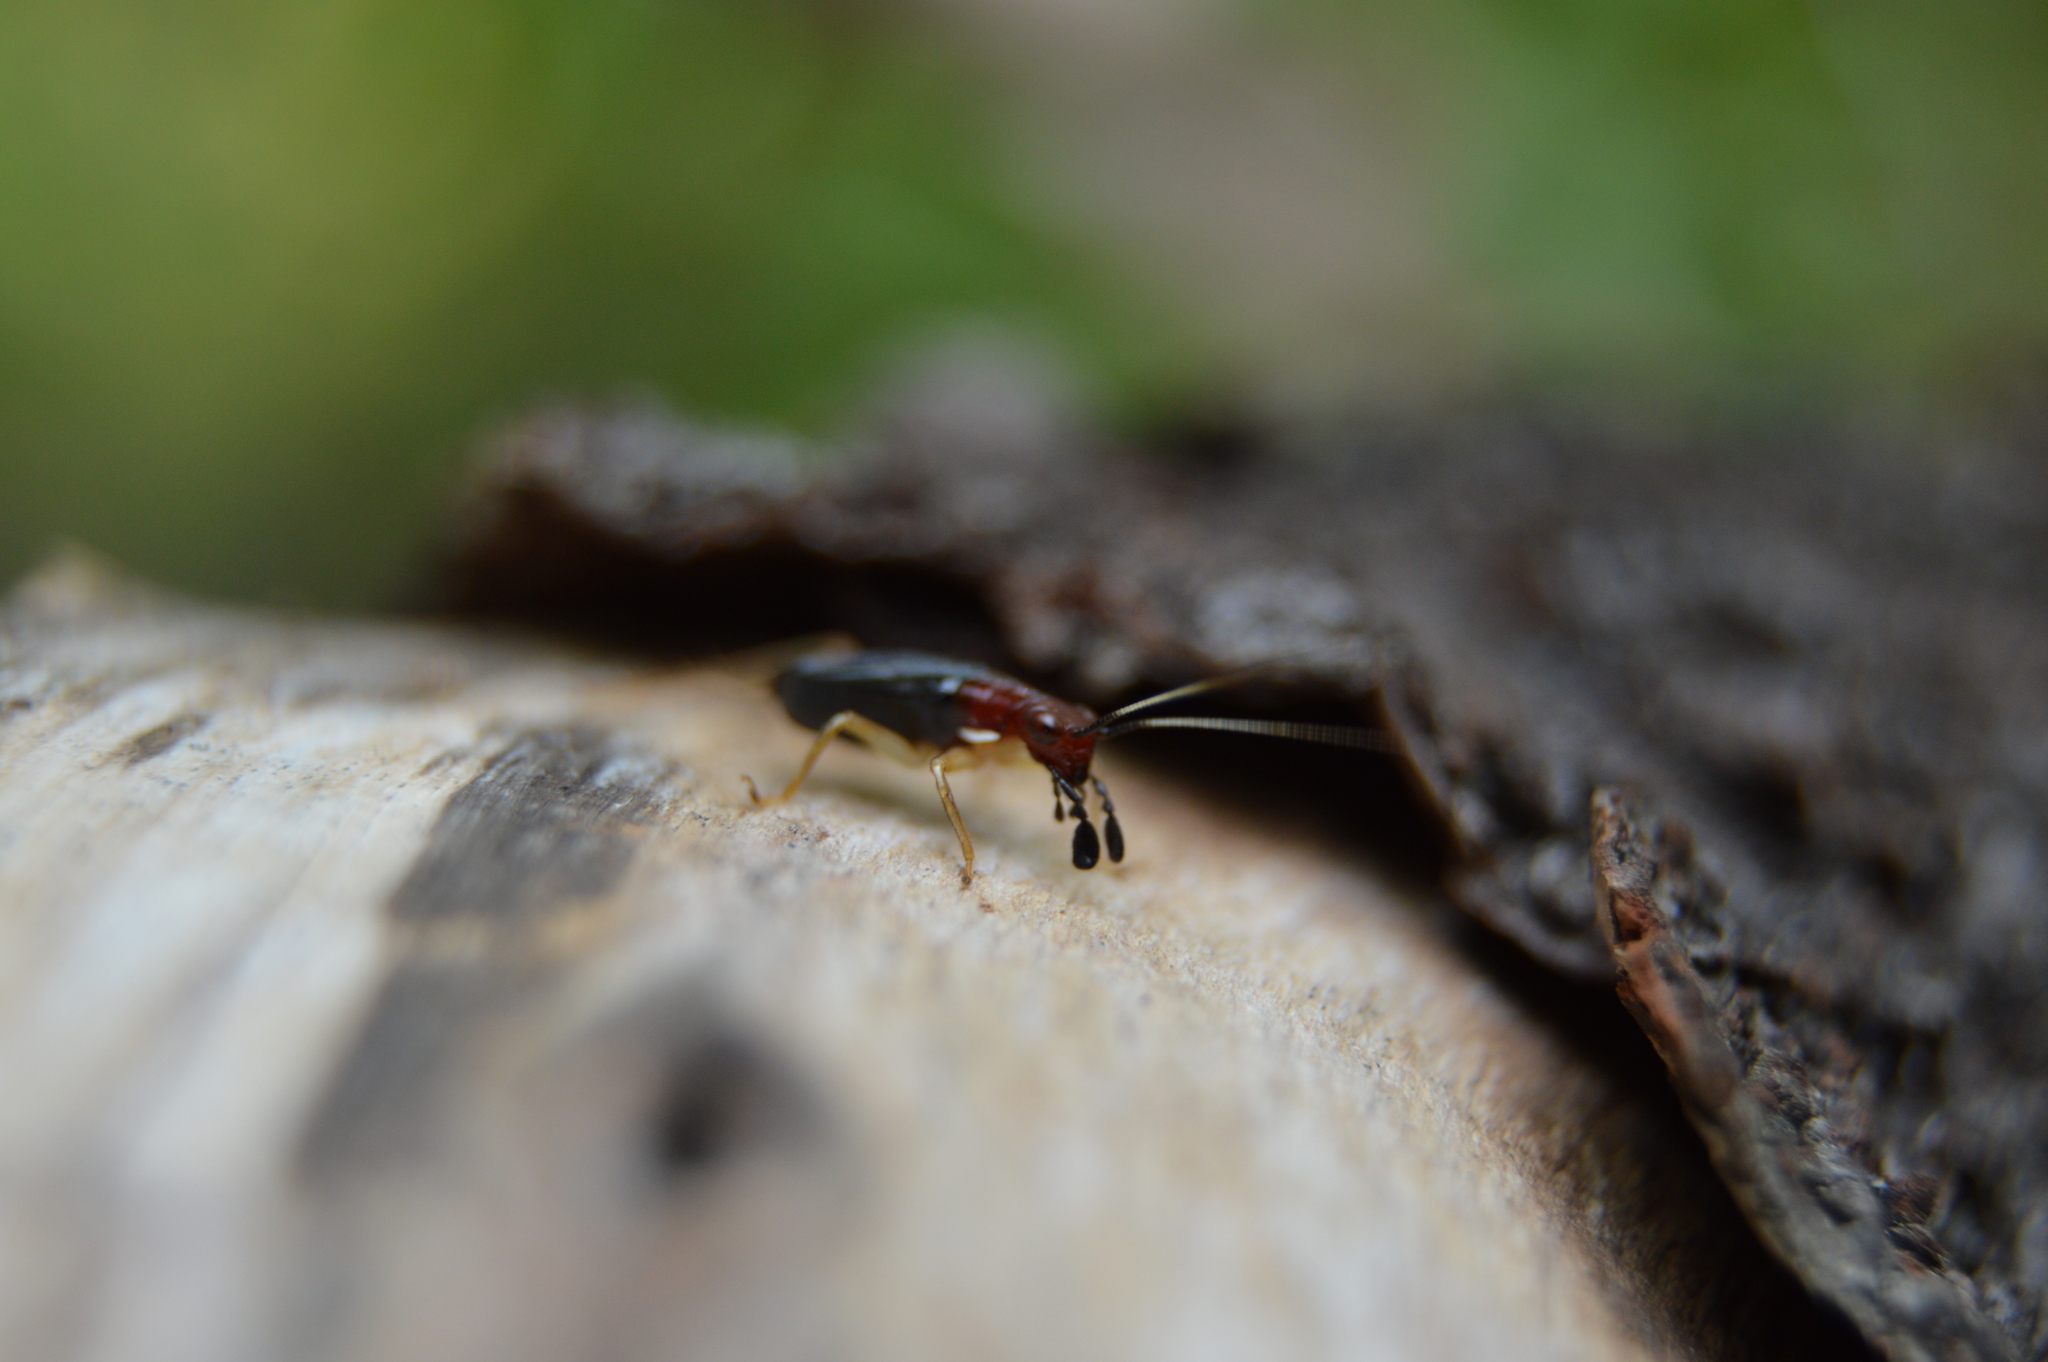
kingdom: Animalia
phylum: Arthropoda
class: Insecta
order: Orthoptera
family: Trigonidiidae
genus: Phyllopalpus
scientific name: Phyllopalpus pulchellus
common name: Handsome trig
